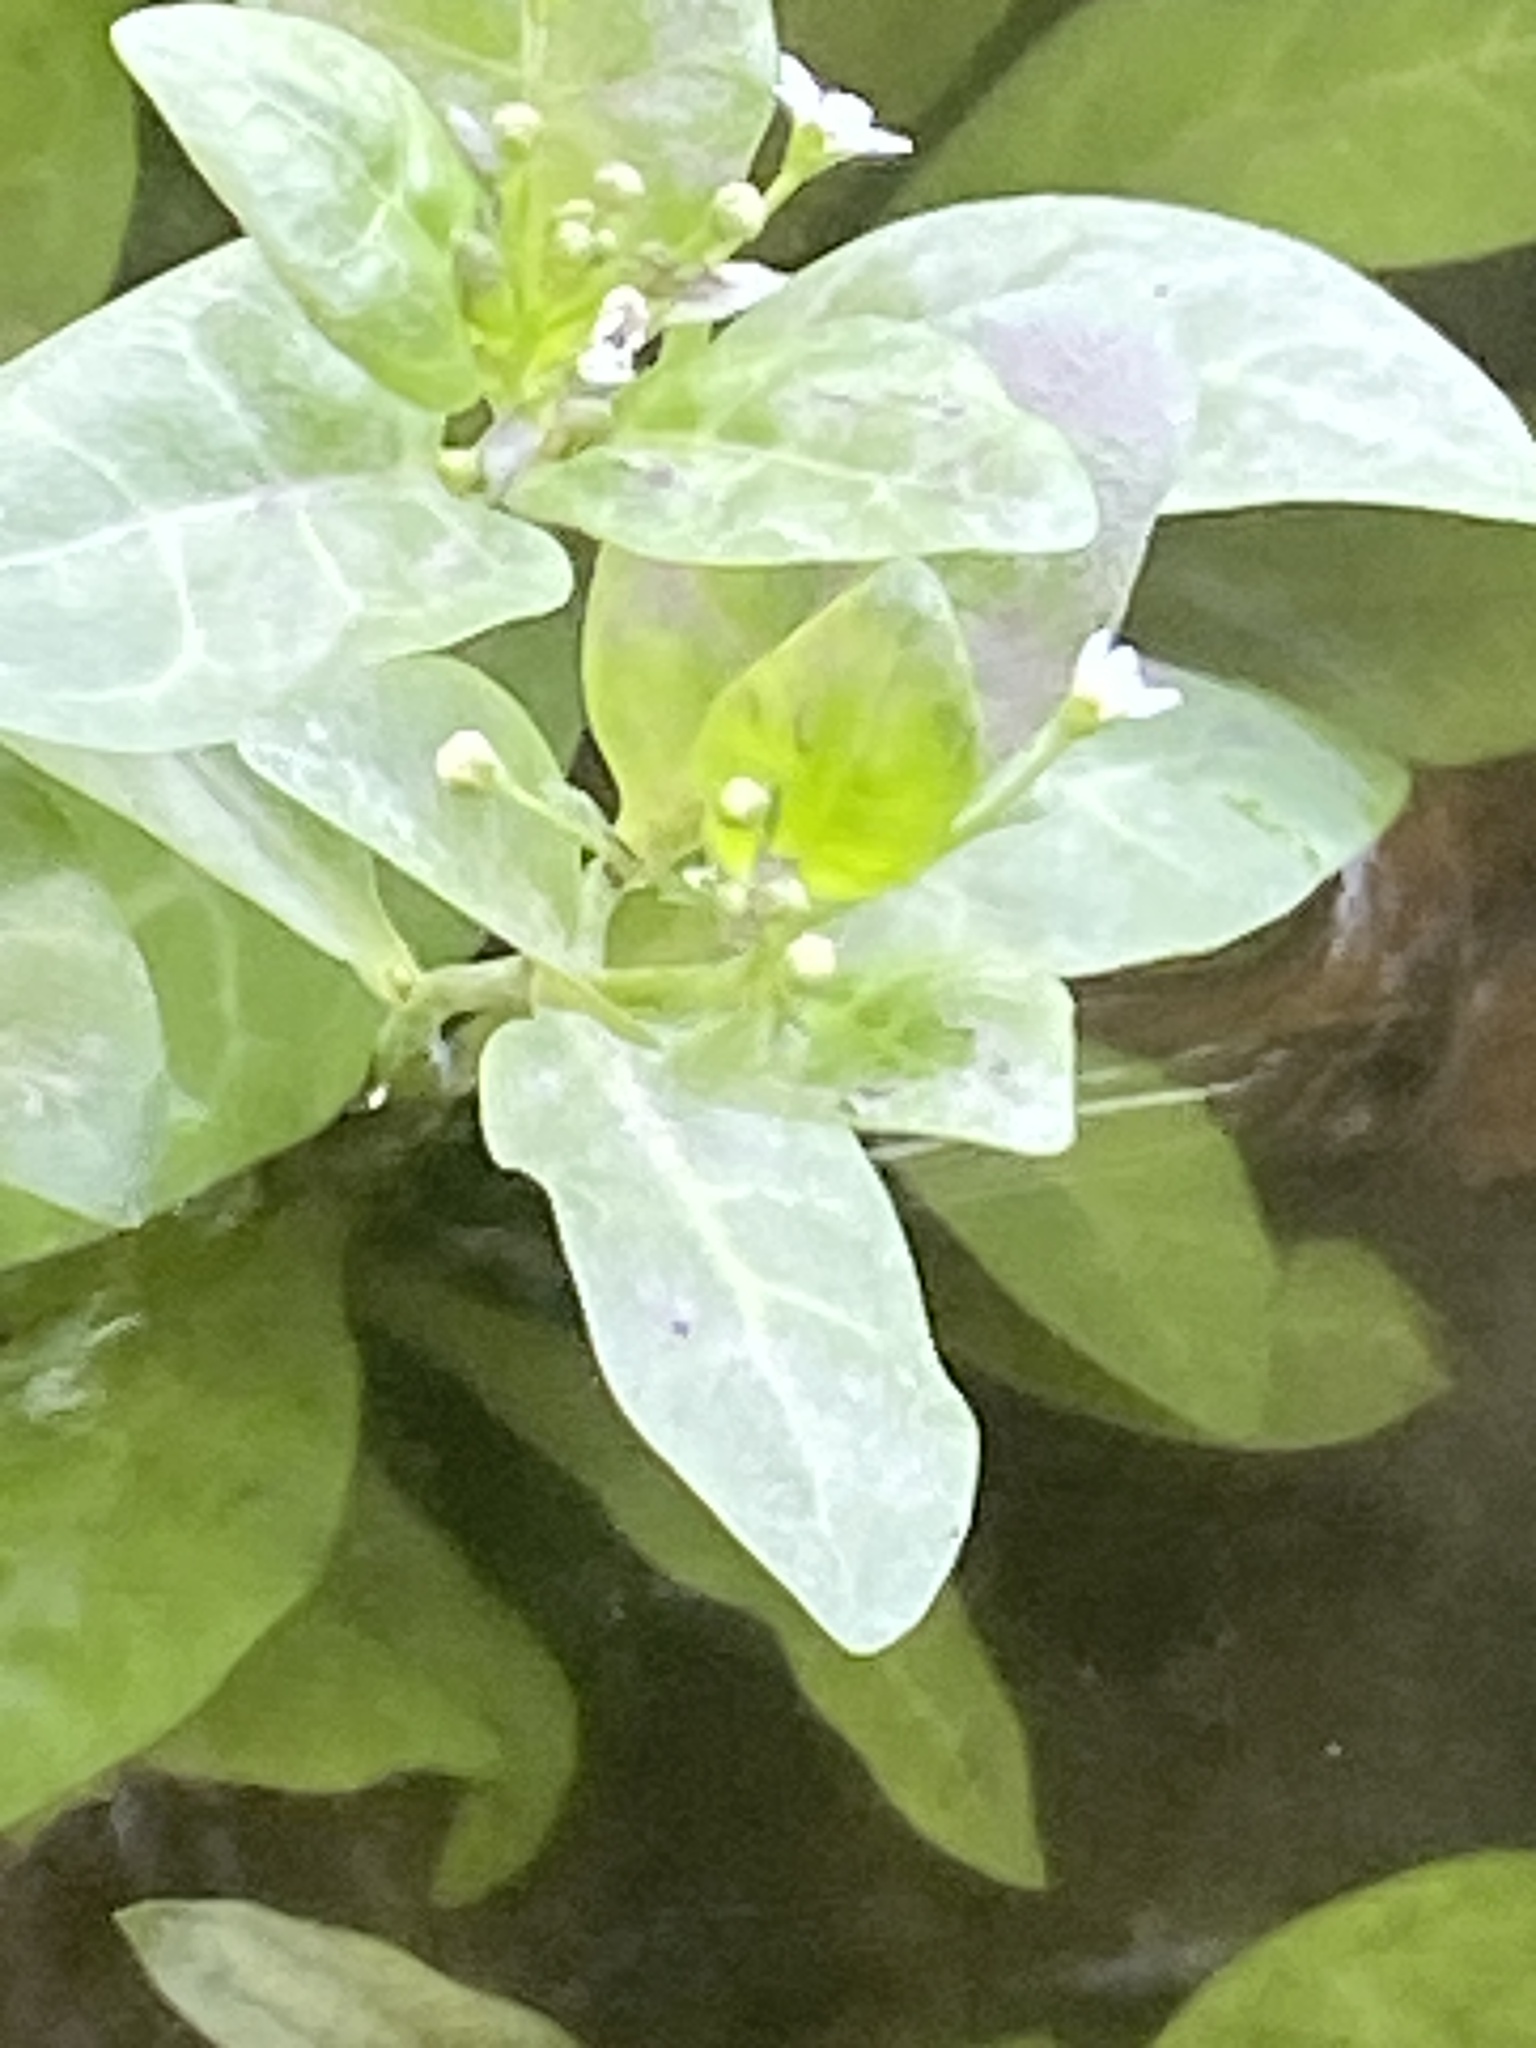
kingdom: Plantae
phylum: Tracheophyta
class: Magnoliopsida
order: Ericales
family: Primulaceae
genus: Samolus
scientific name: Samolus parviflorus
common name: False water pimpernel
